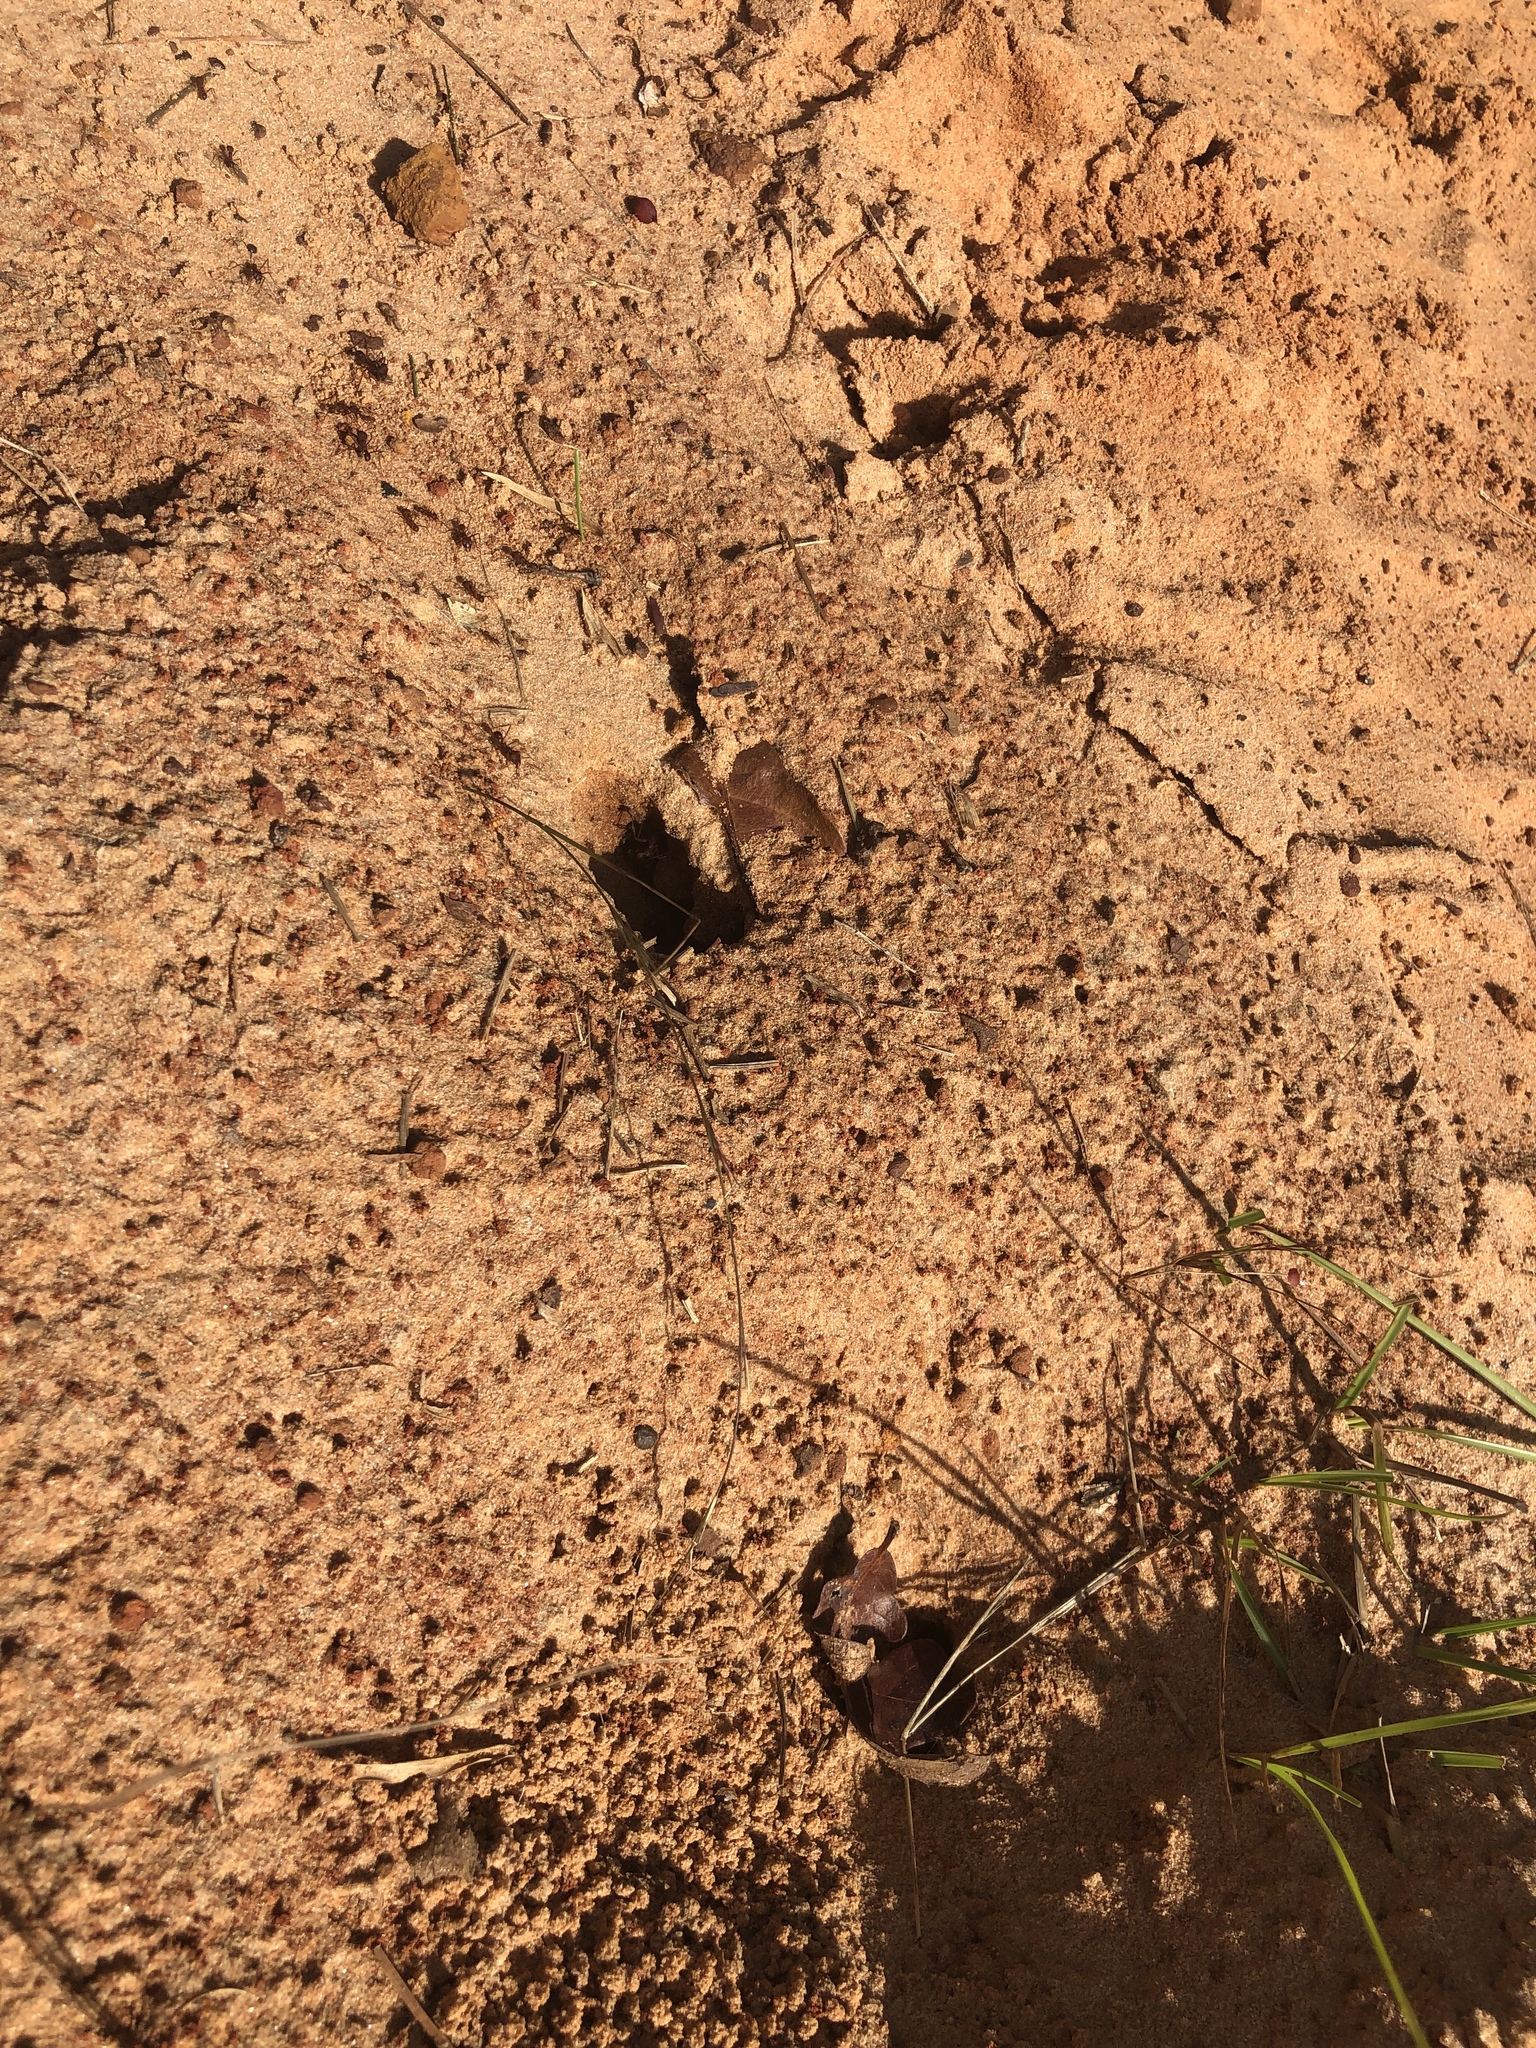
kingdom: Animalia
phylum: Arthropoda
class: Insecta
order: Hymenoptera
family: Formicidae
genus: Atta
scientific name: Atta texana
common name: Texas leafcutting ant
